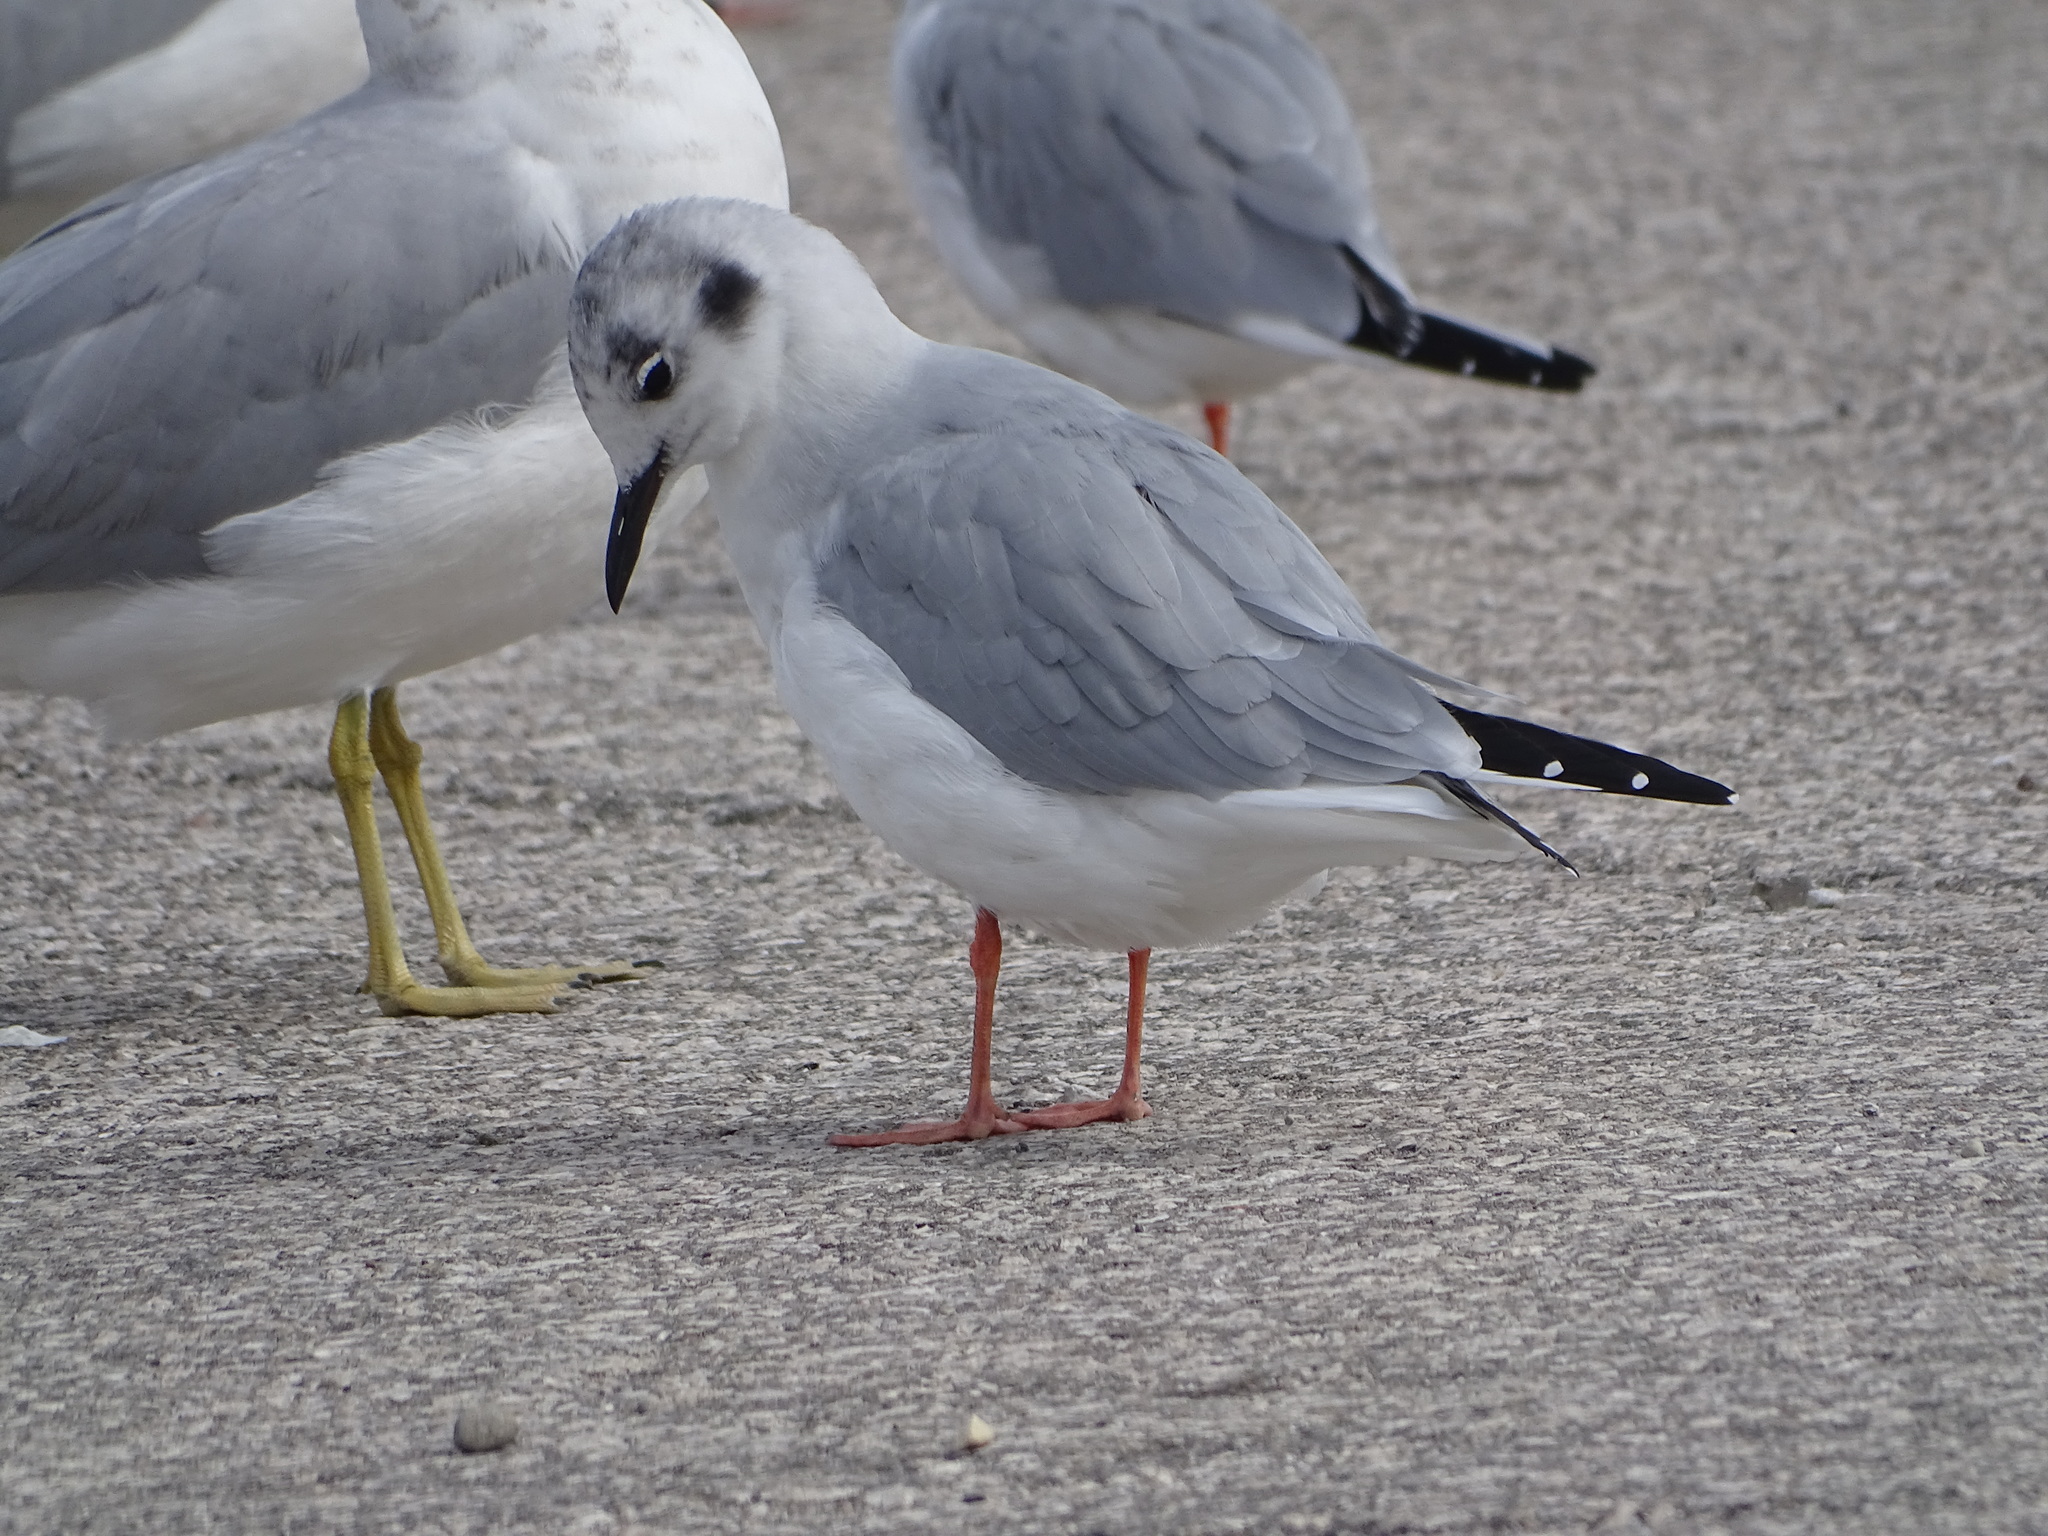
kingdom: Animalia
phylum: Chordata
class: Aves
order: Charadriiformes
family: Laridae
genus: Chroicocephalus
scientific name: Chroicocephalus philadelphia
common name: Bonaparte's gull
